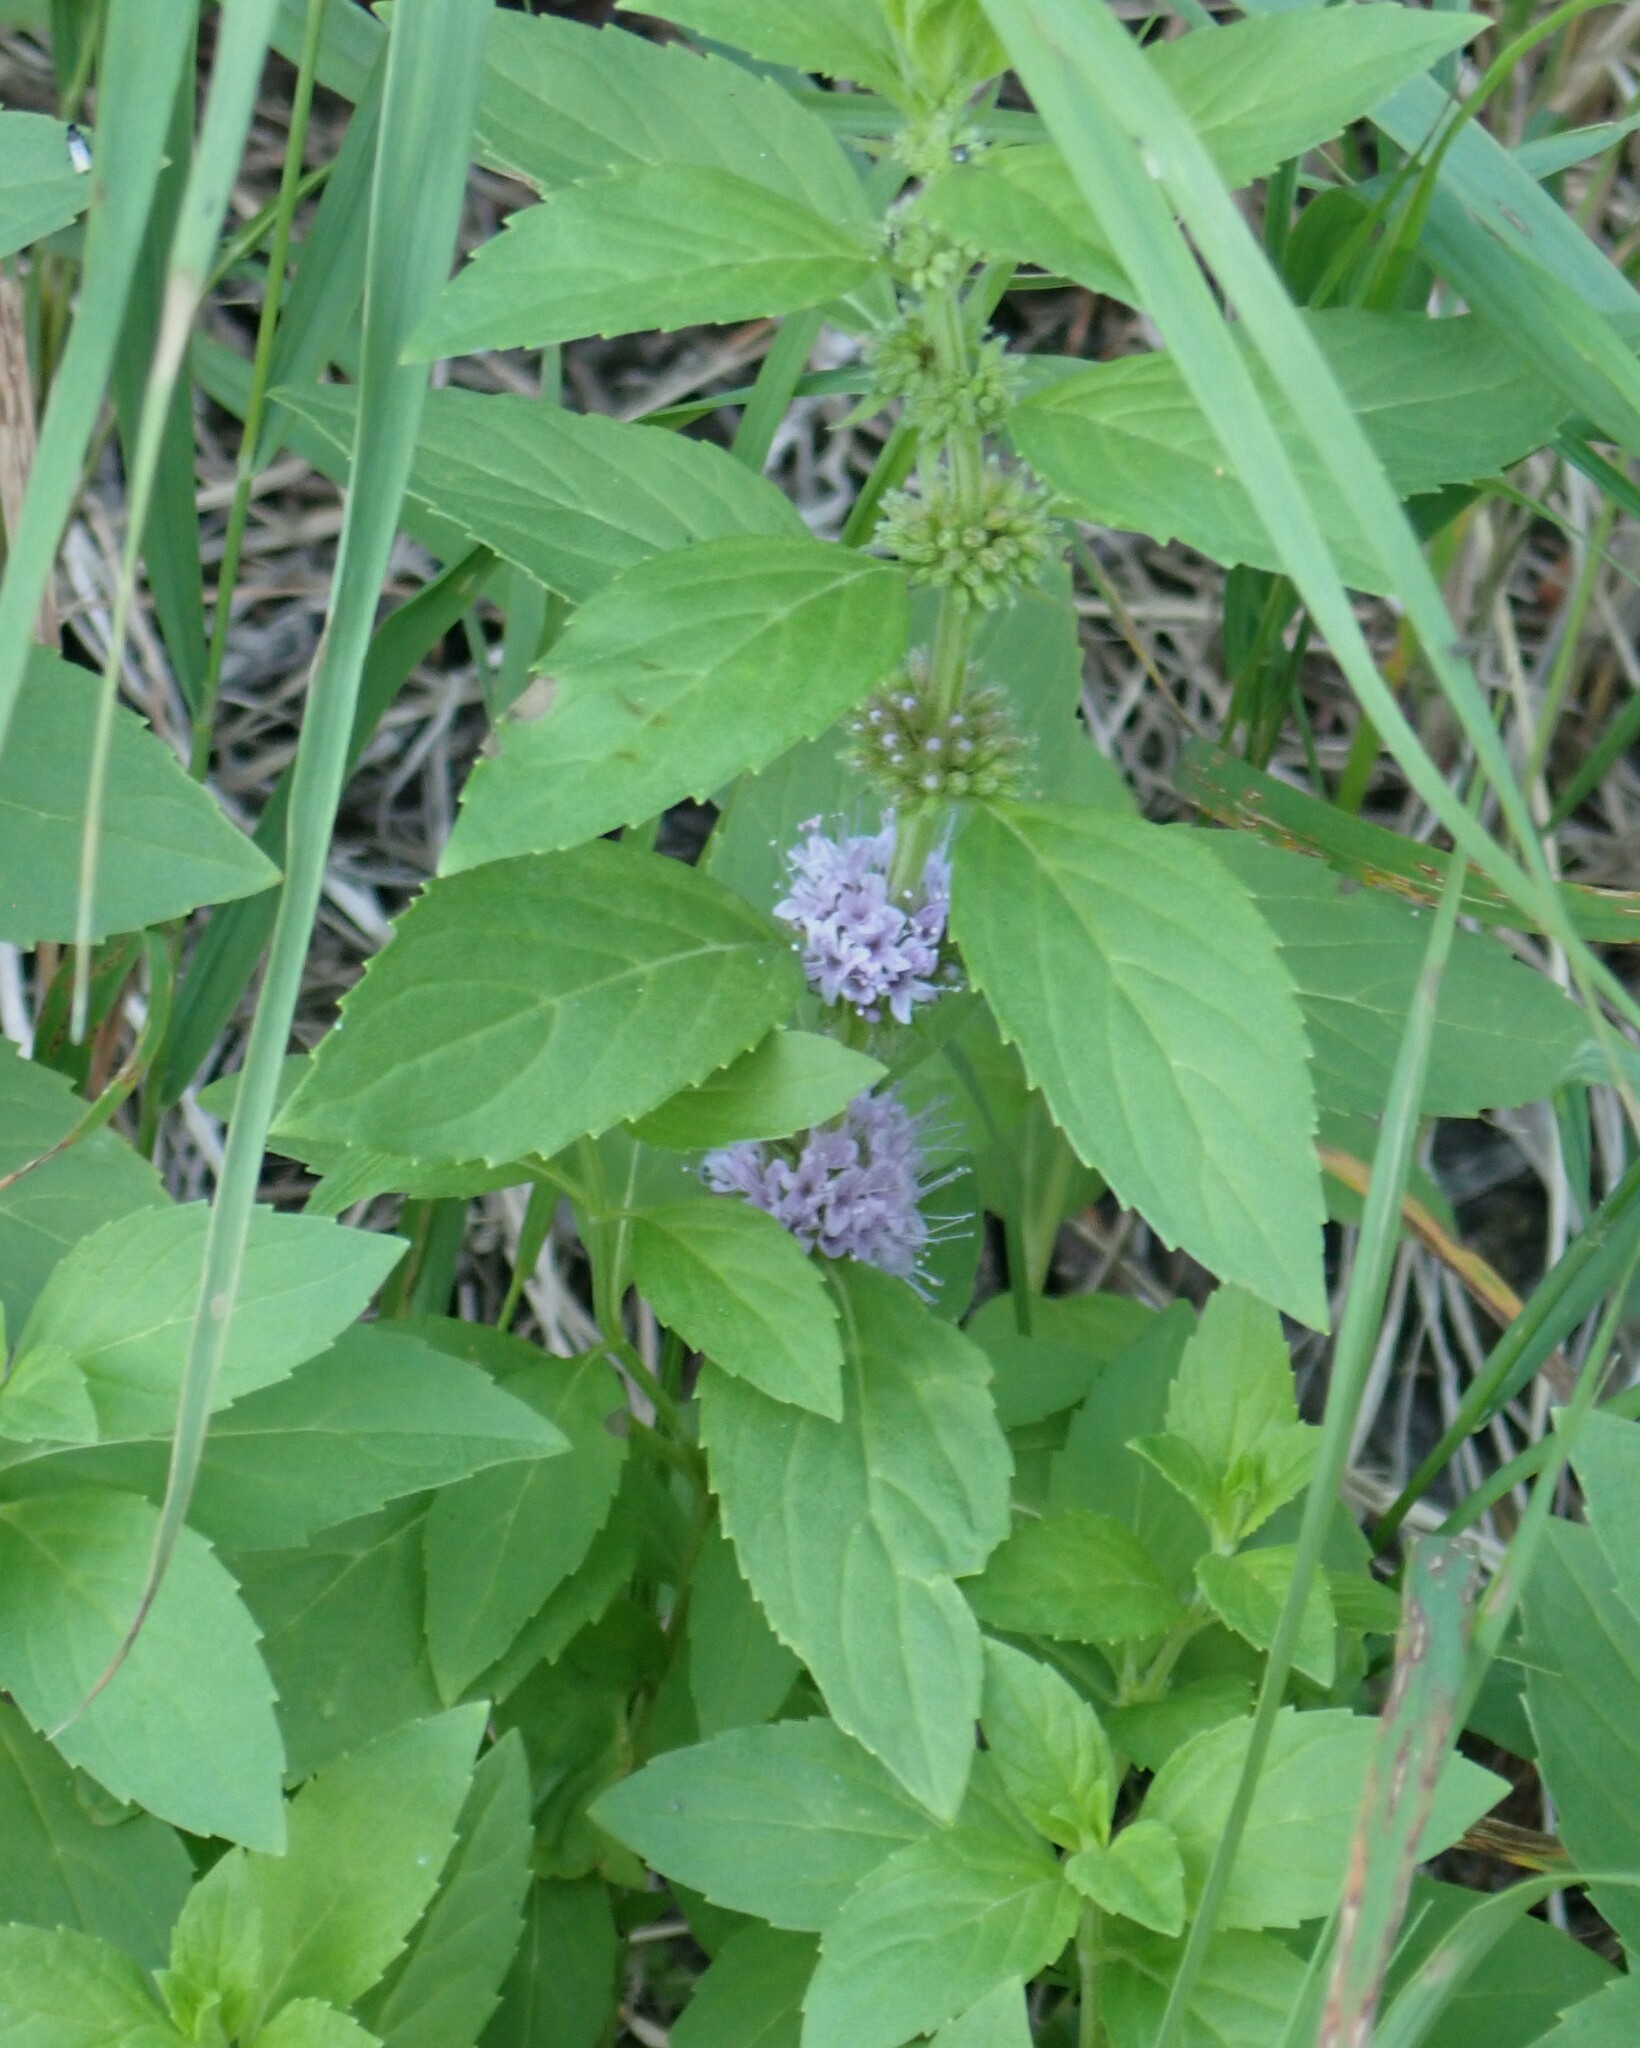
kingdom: Plantae
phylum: Tracheophyta
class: Magnoliopsida
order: Lamiales
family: Lamiaceae
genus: Mentha
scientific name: Mentha canadensis
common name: American corn mint
